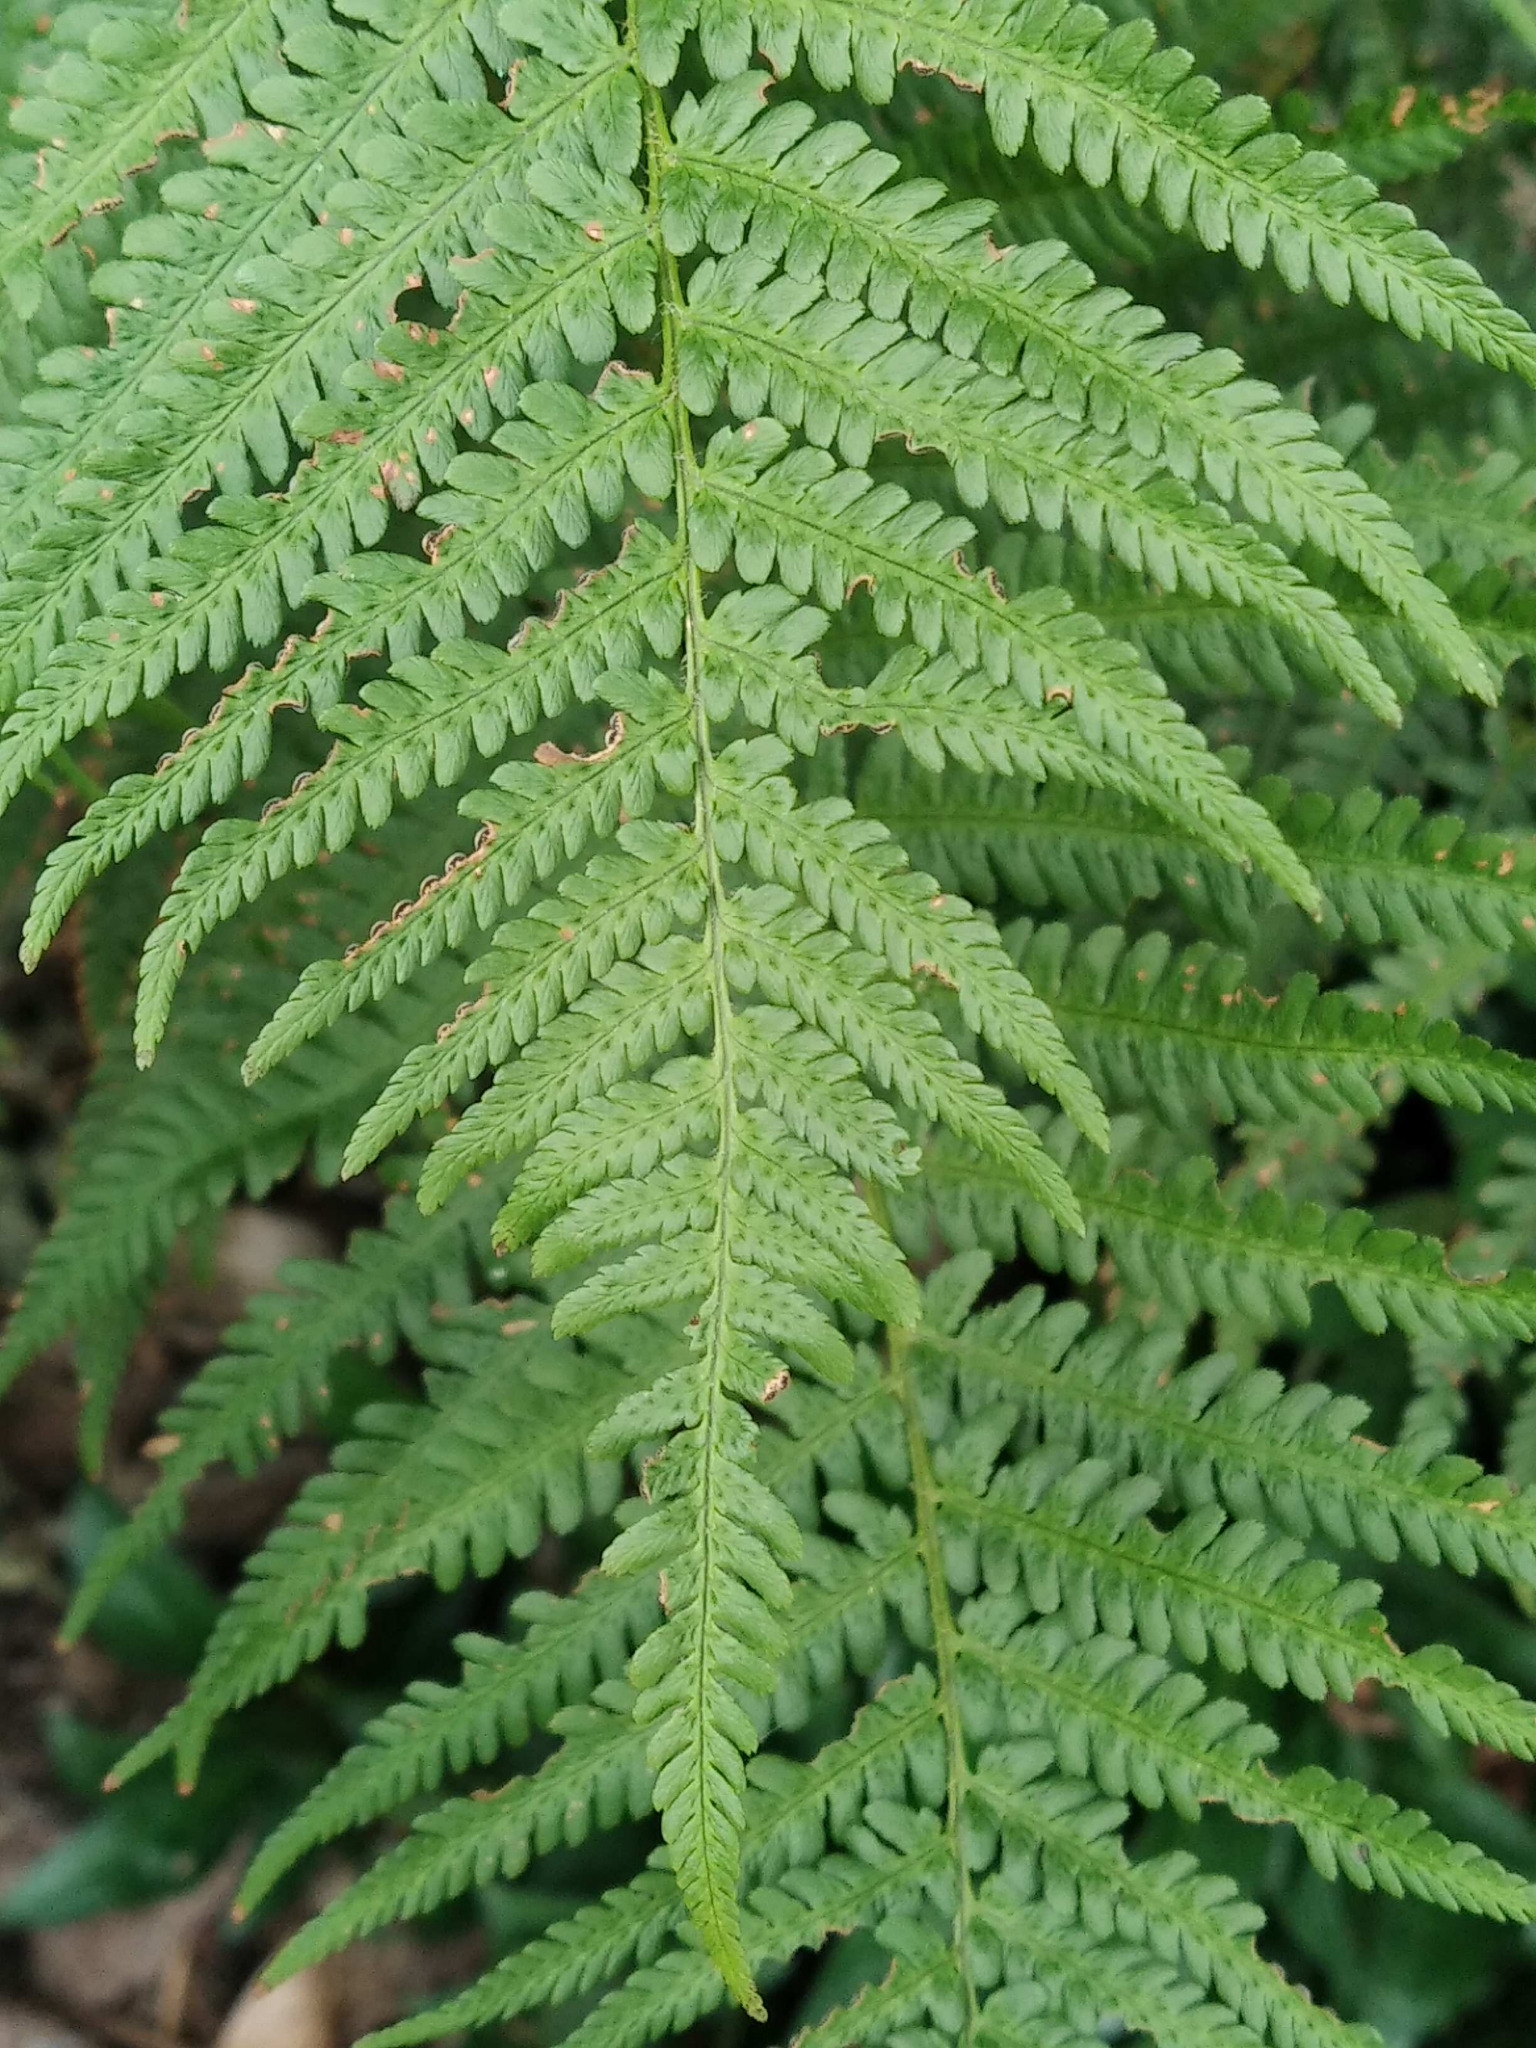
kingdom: Plantae
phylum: Tracheophyta
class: Polypodiopsida
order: Polypodiales
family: Dryopteridaceae
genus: Dryopteris
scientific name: Dryopteris filix-mas
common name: Male fern
